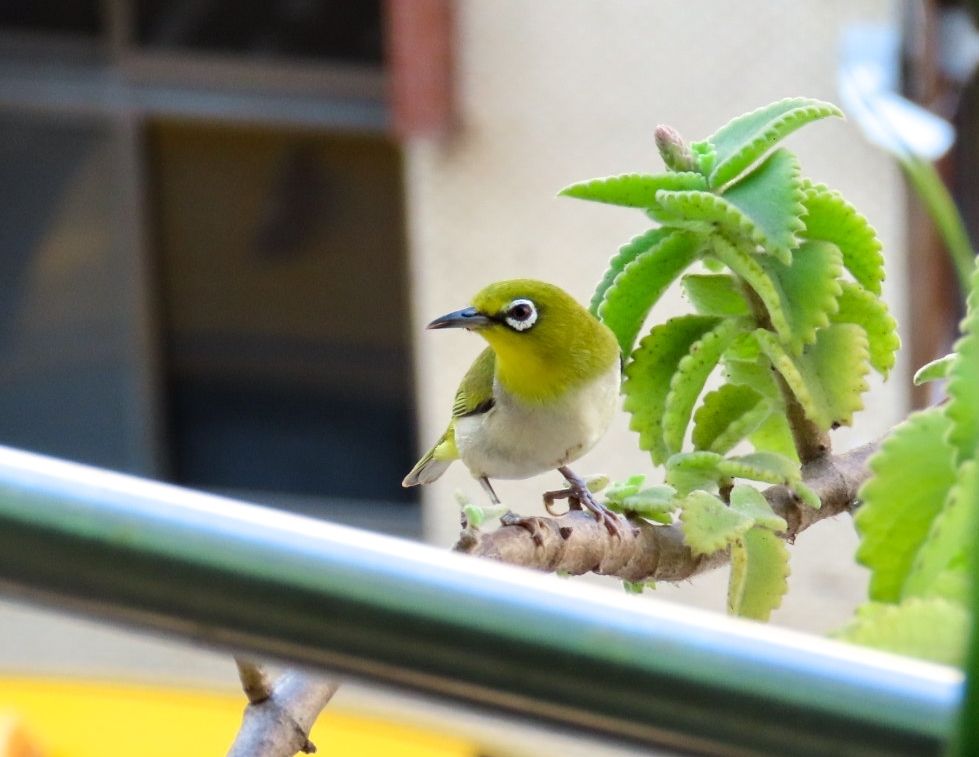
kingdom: Animalia
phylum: Chordata
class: Aves
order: Passeriformes
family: Zosteropidae
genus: Zosterops
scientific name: Zosterops simplex
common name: Swinhoe's white-eye
